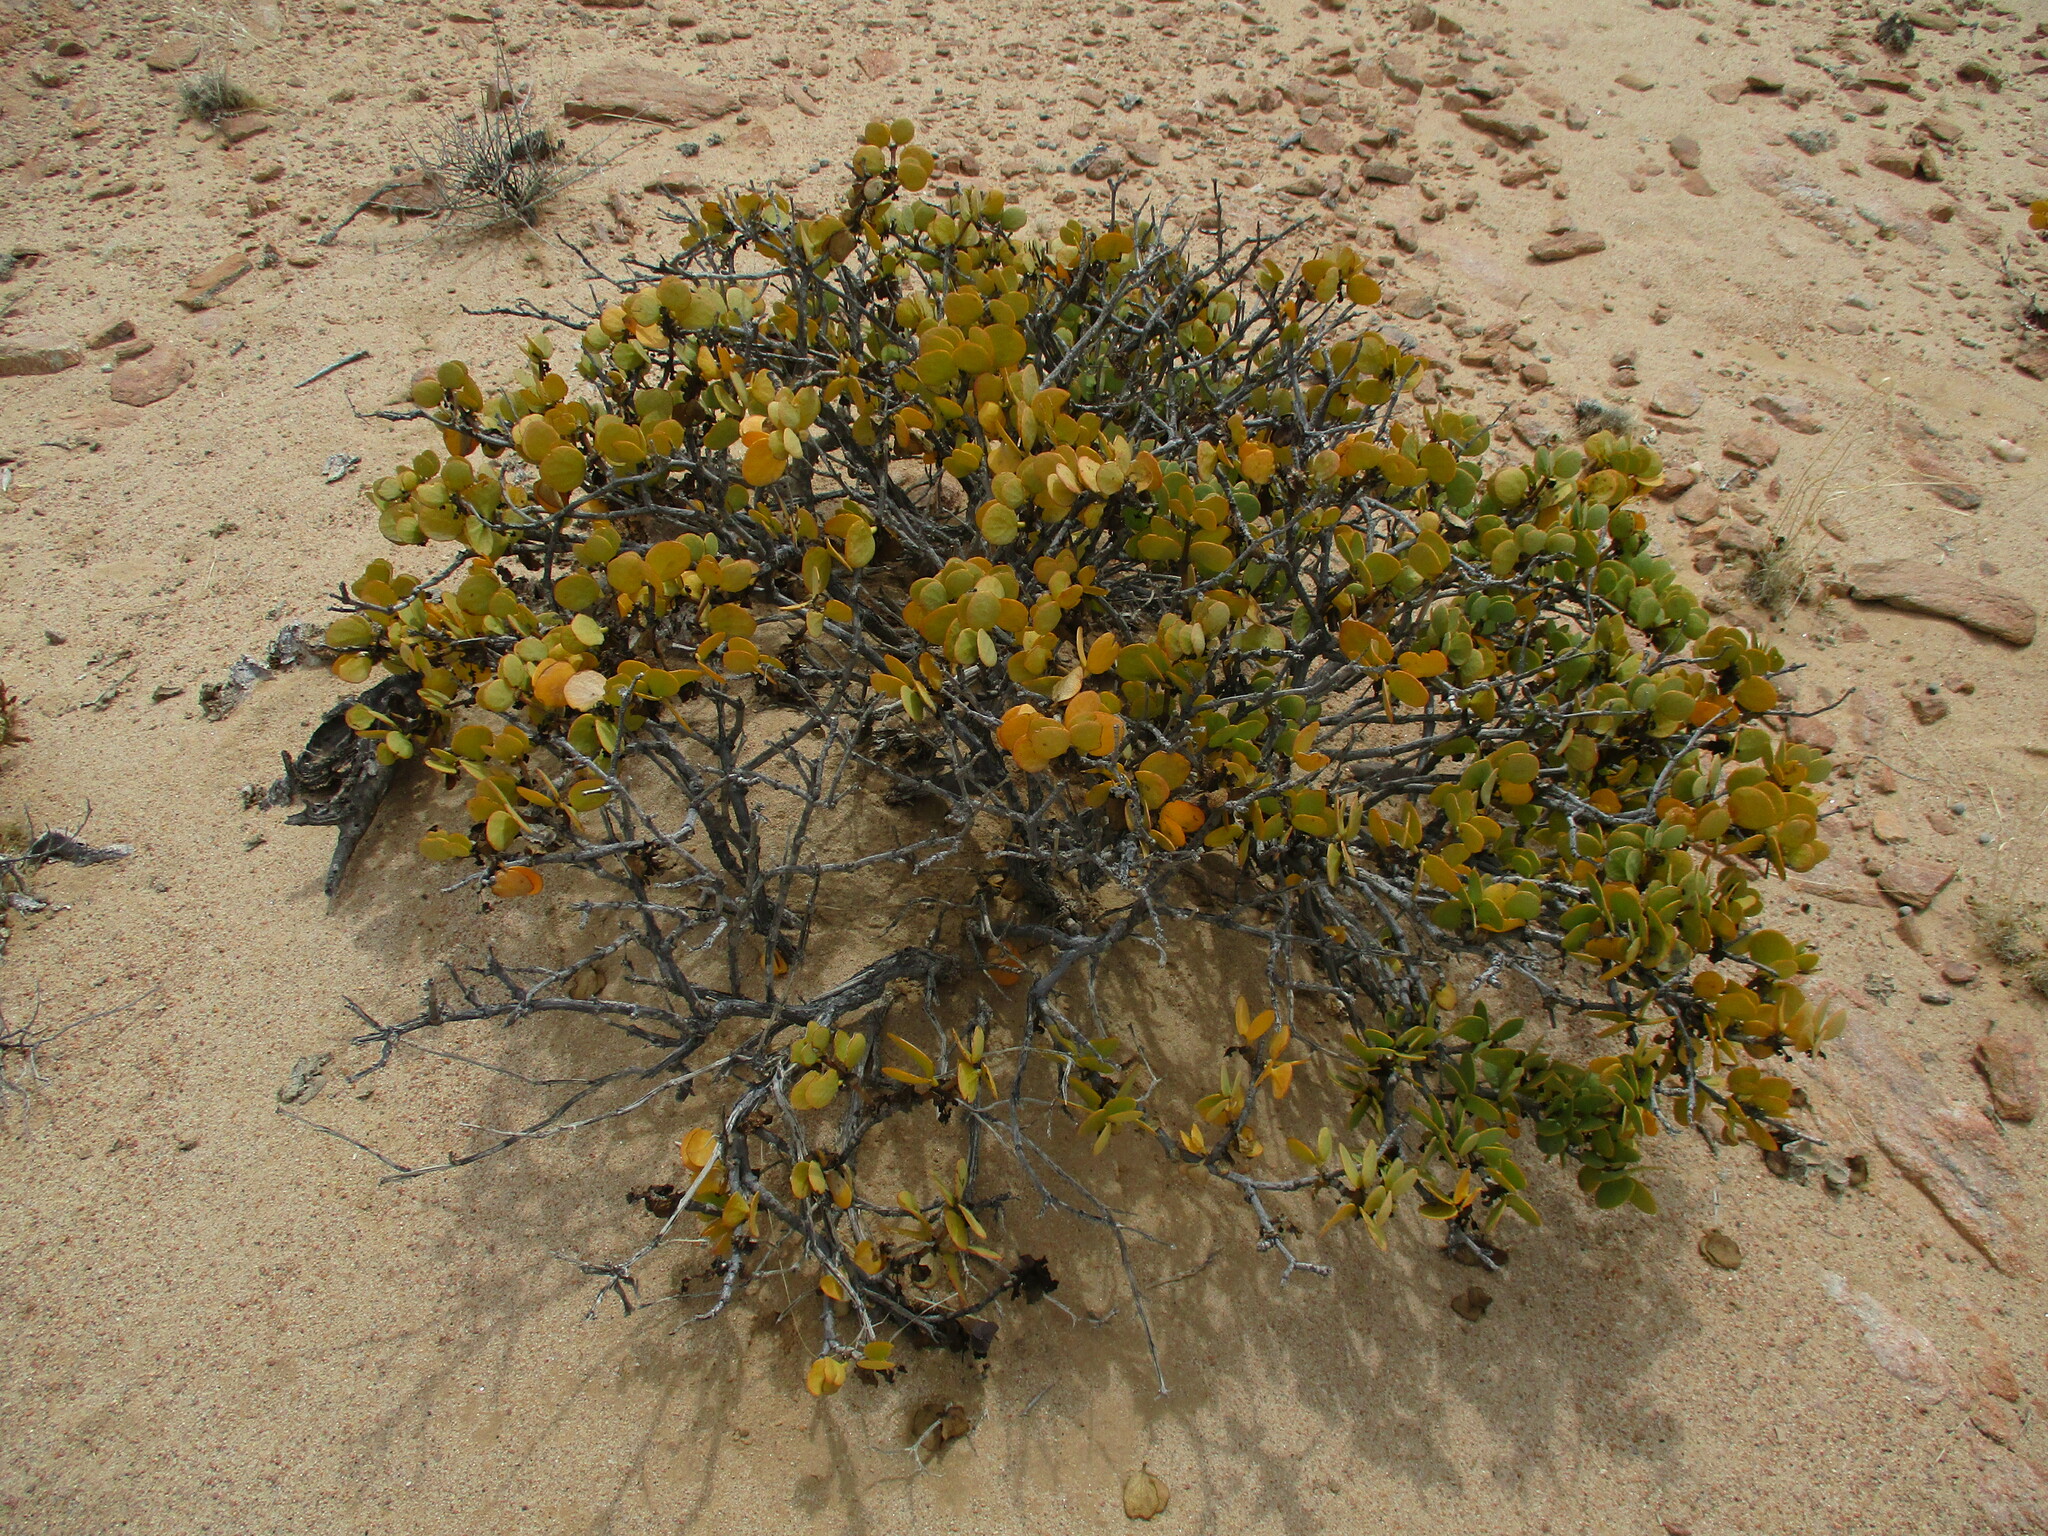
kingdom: Plantae
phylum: Tracheophyta
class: Magnoliopsida
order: Zygophyllales
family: Zygophyllaceae
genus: Tetraena
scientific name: Tetraena stapfii
